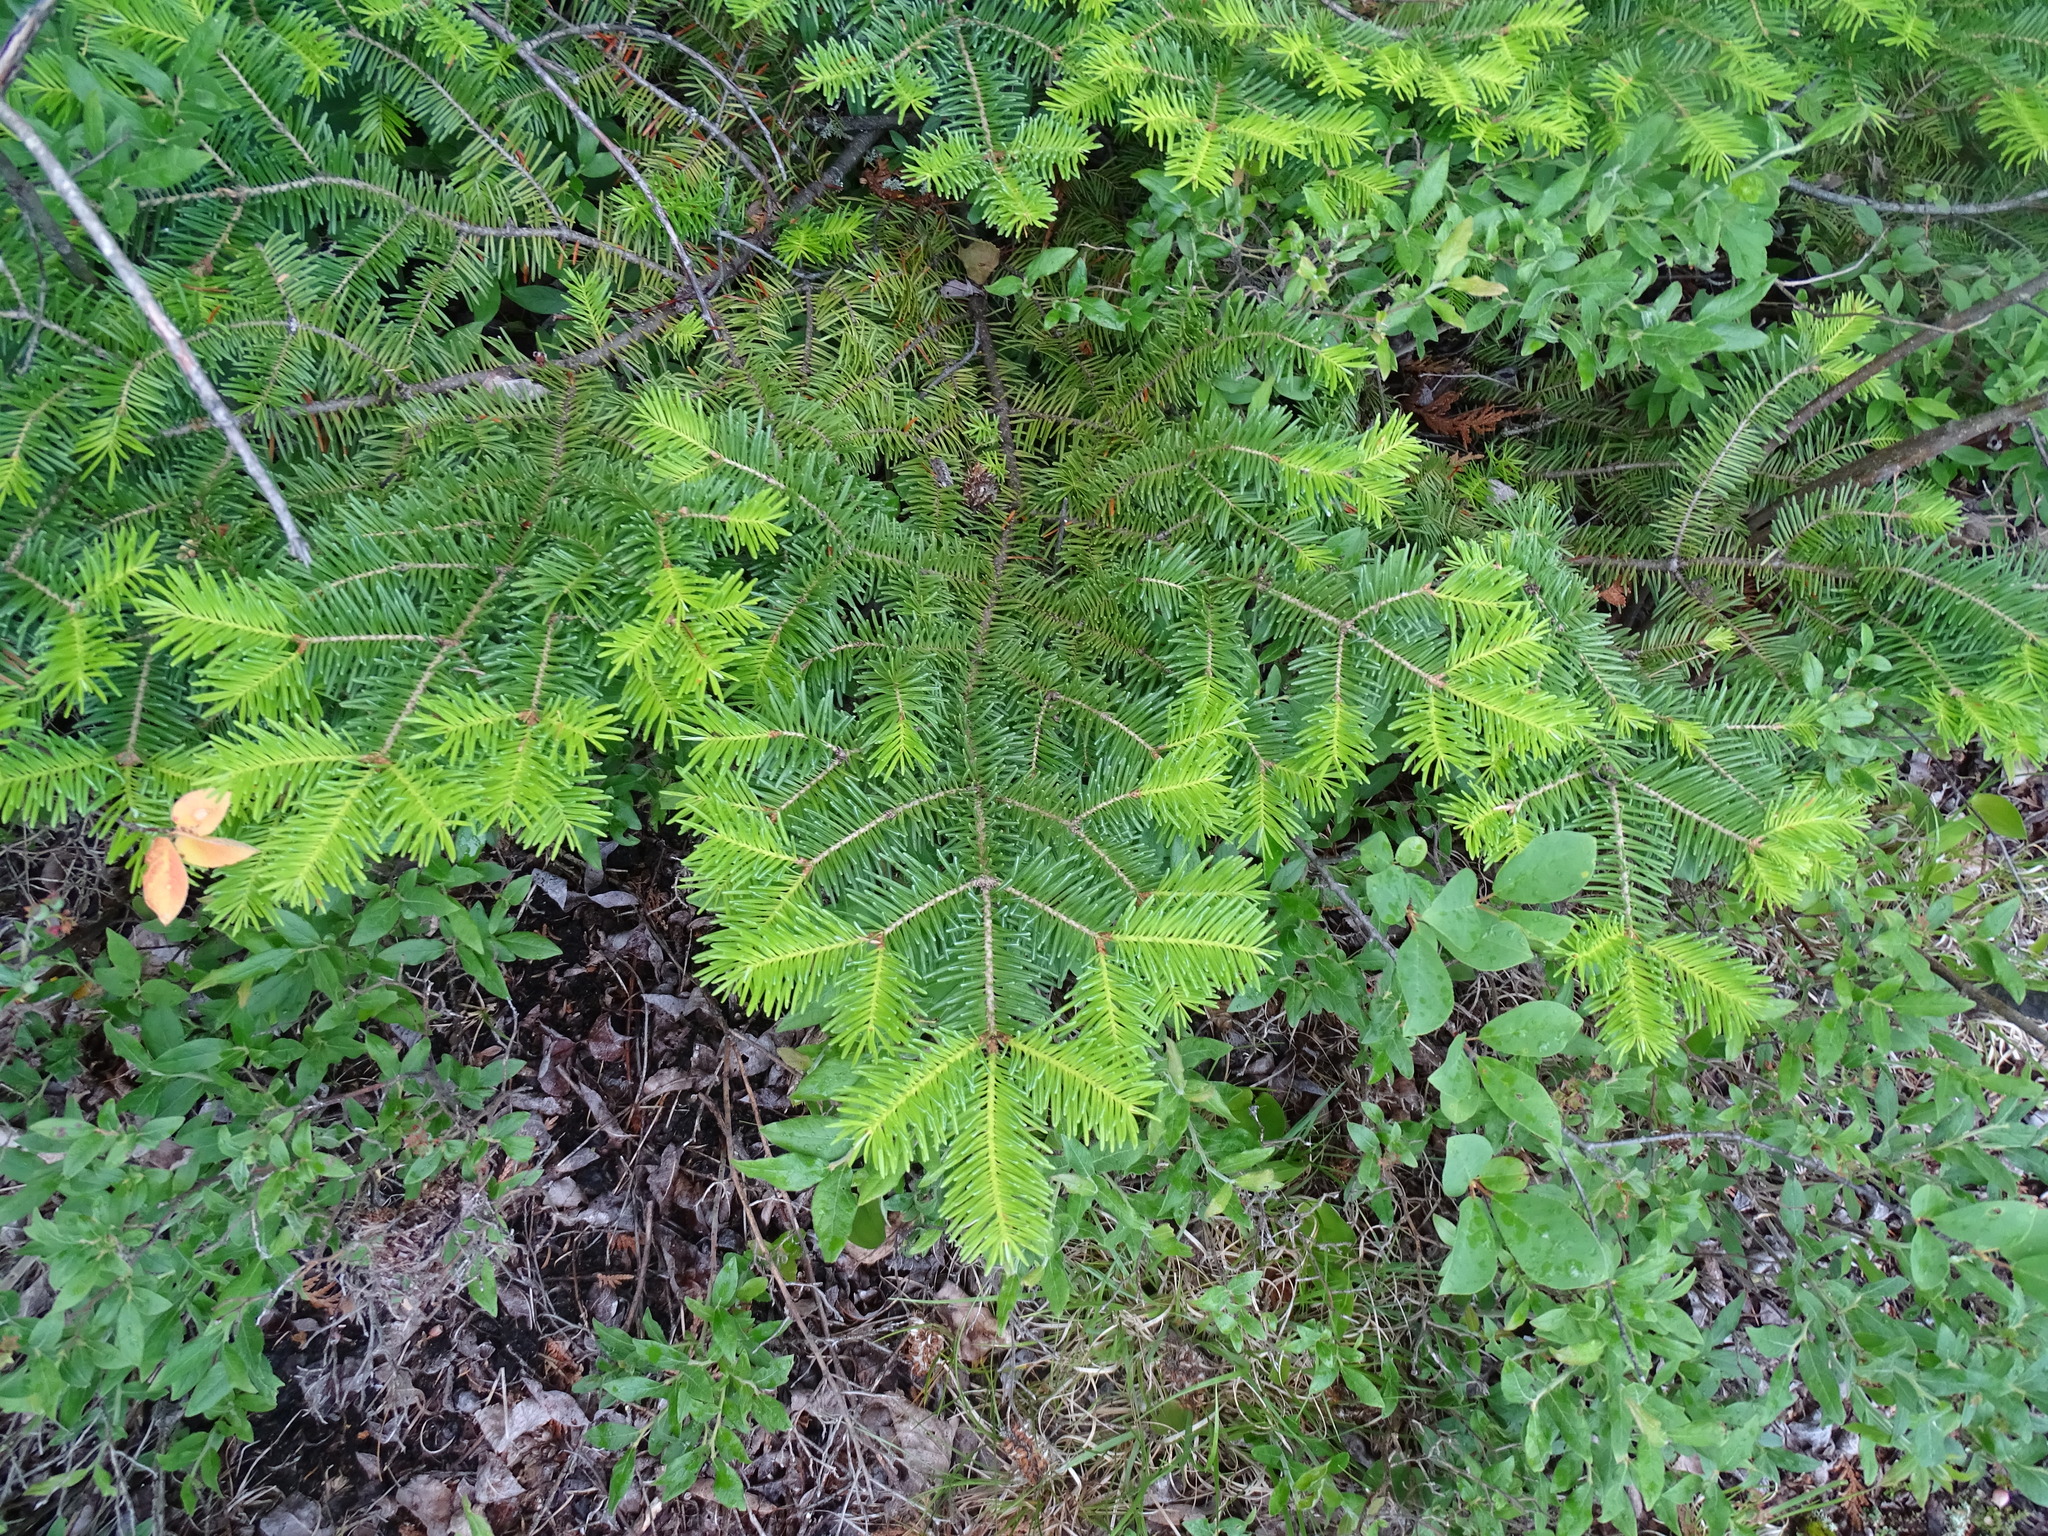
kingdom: Plantae
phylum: Tracheophyta
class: Pinopsida
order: Pinales
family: Pinaceae
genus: Abies
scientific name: Abies balsamea
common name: Balsam fir
